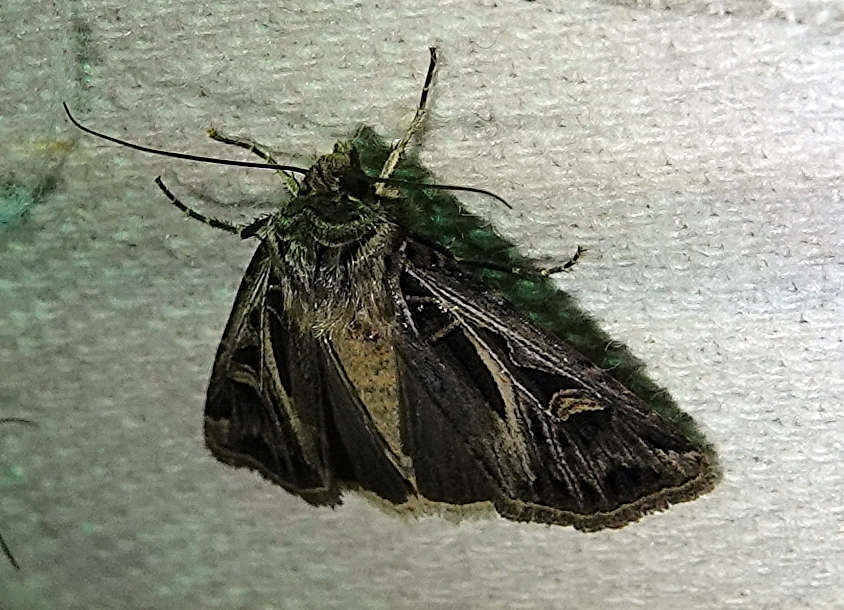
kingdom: Animalia
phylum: Arthropoda
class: Insecta
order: Lepidoptera
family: Noctuidae
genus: Feltia
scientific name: Feltia jaculifera
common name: Dingy cutworm moth
